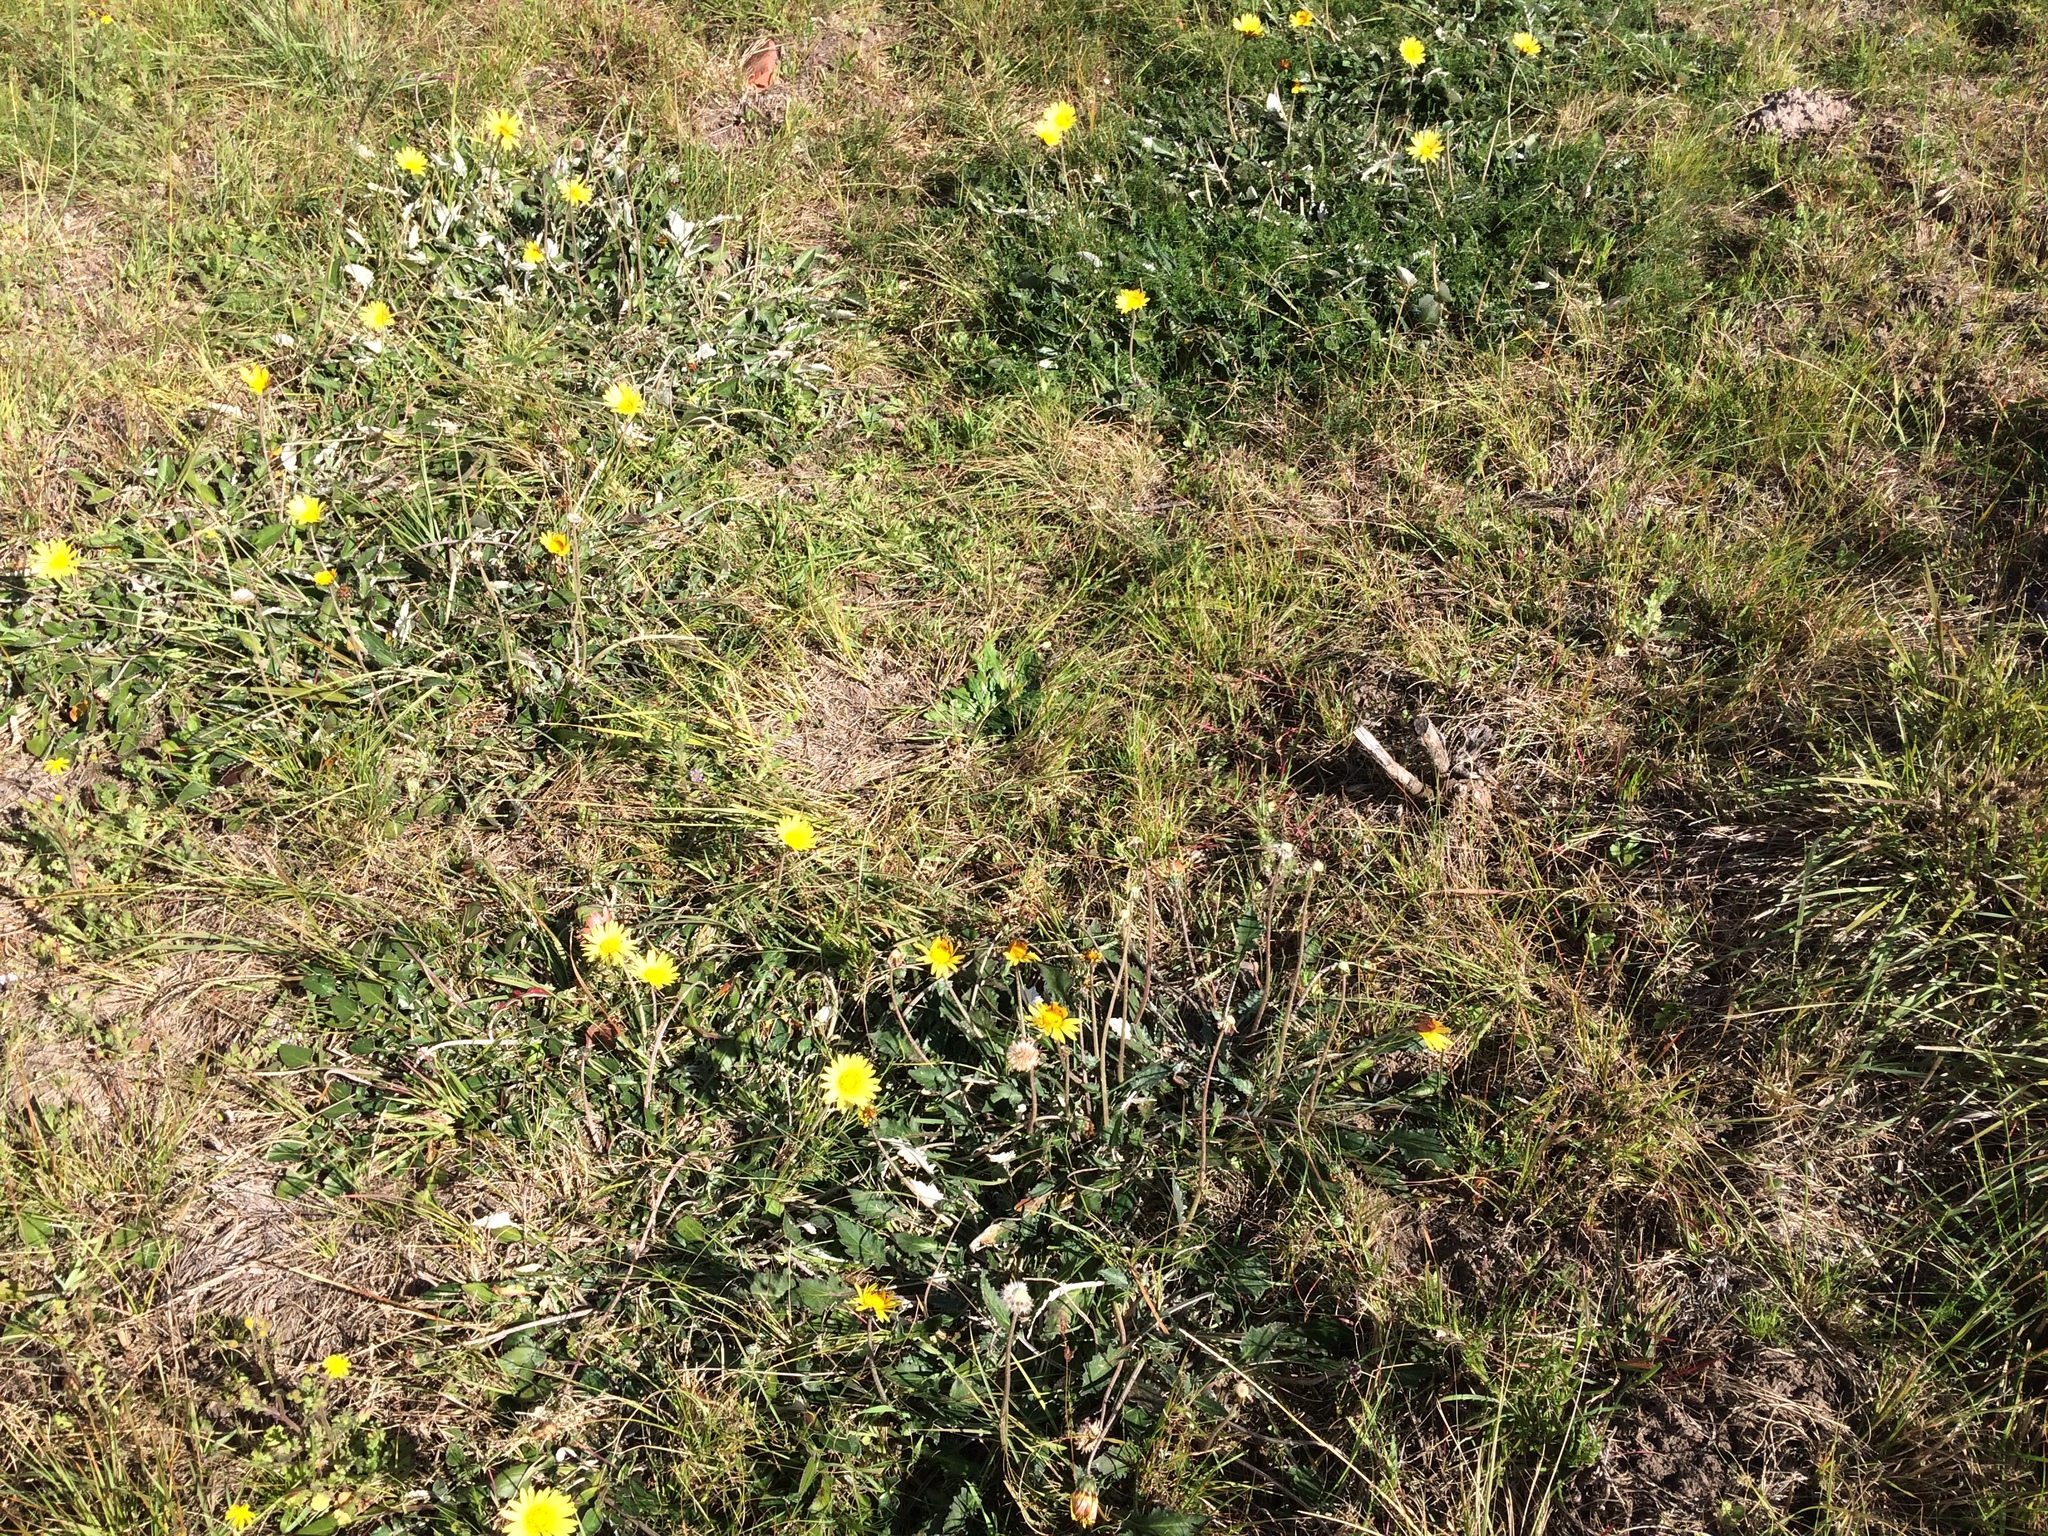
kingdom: Plantae
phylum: Tracheophyta
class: Magnoliopsida
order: Asterales
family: Asteraceae
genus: Haplocarpha
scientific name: Haplocarpha lyrata
